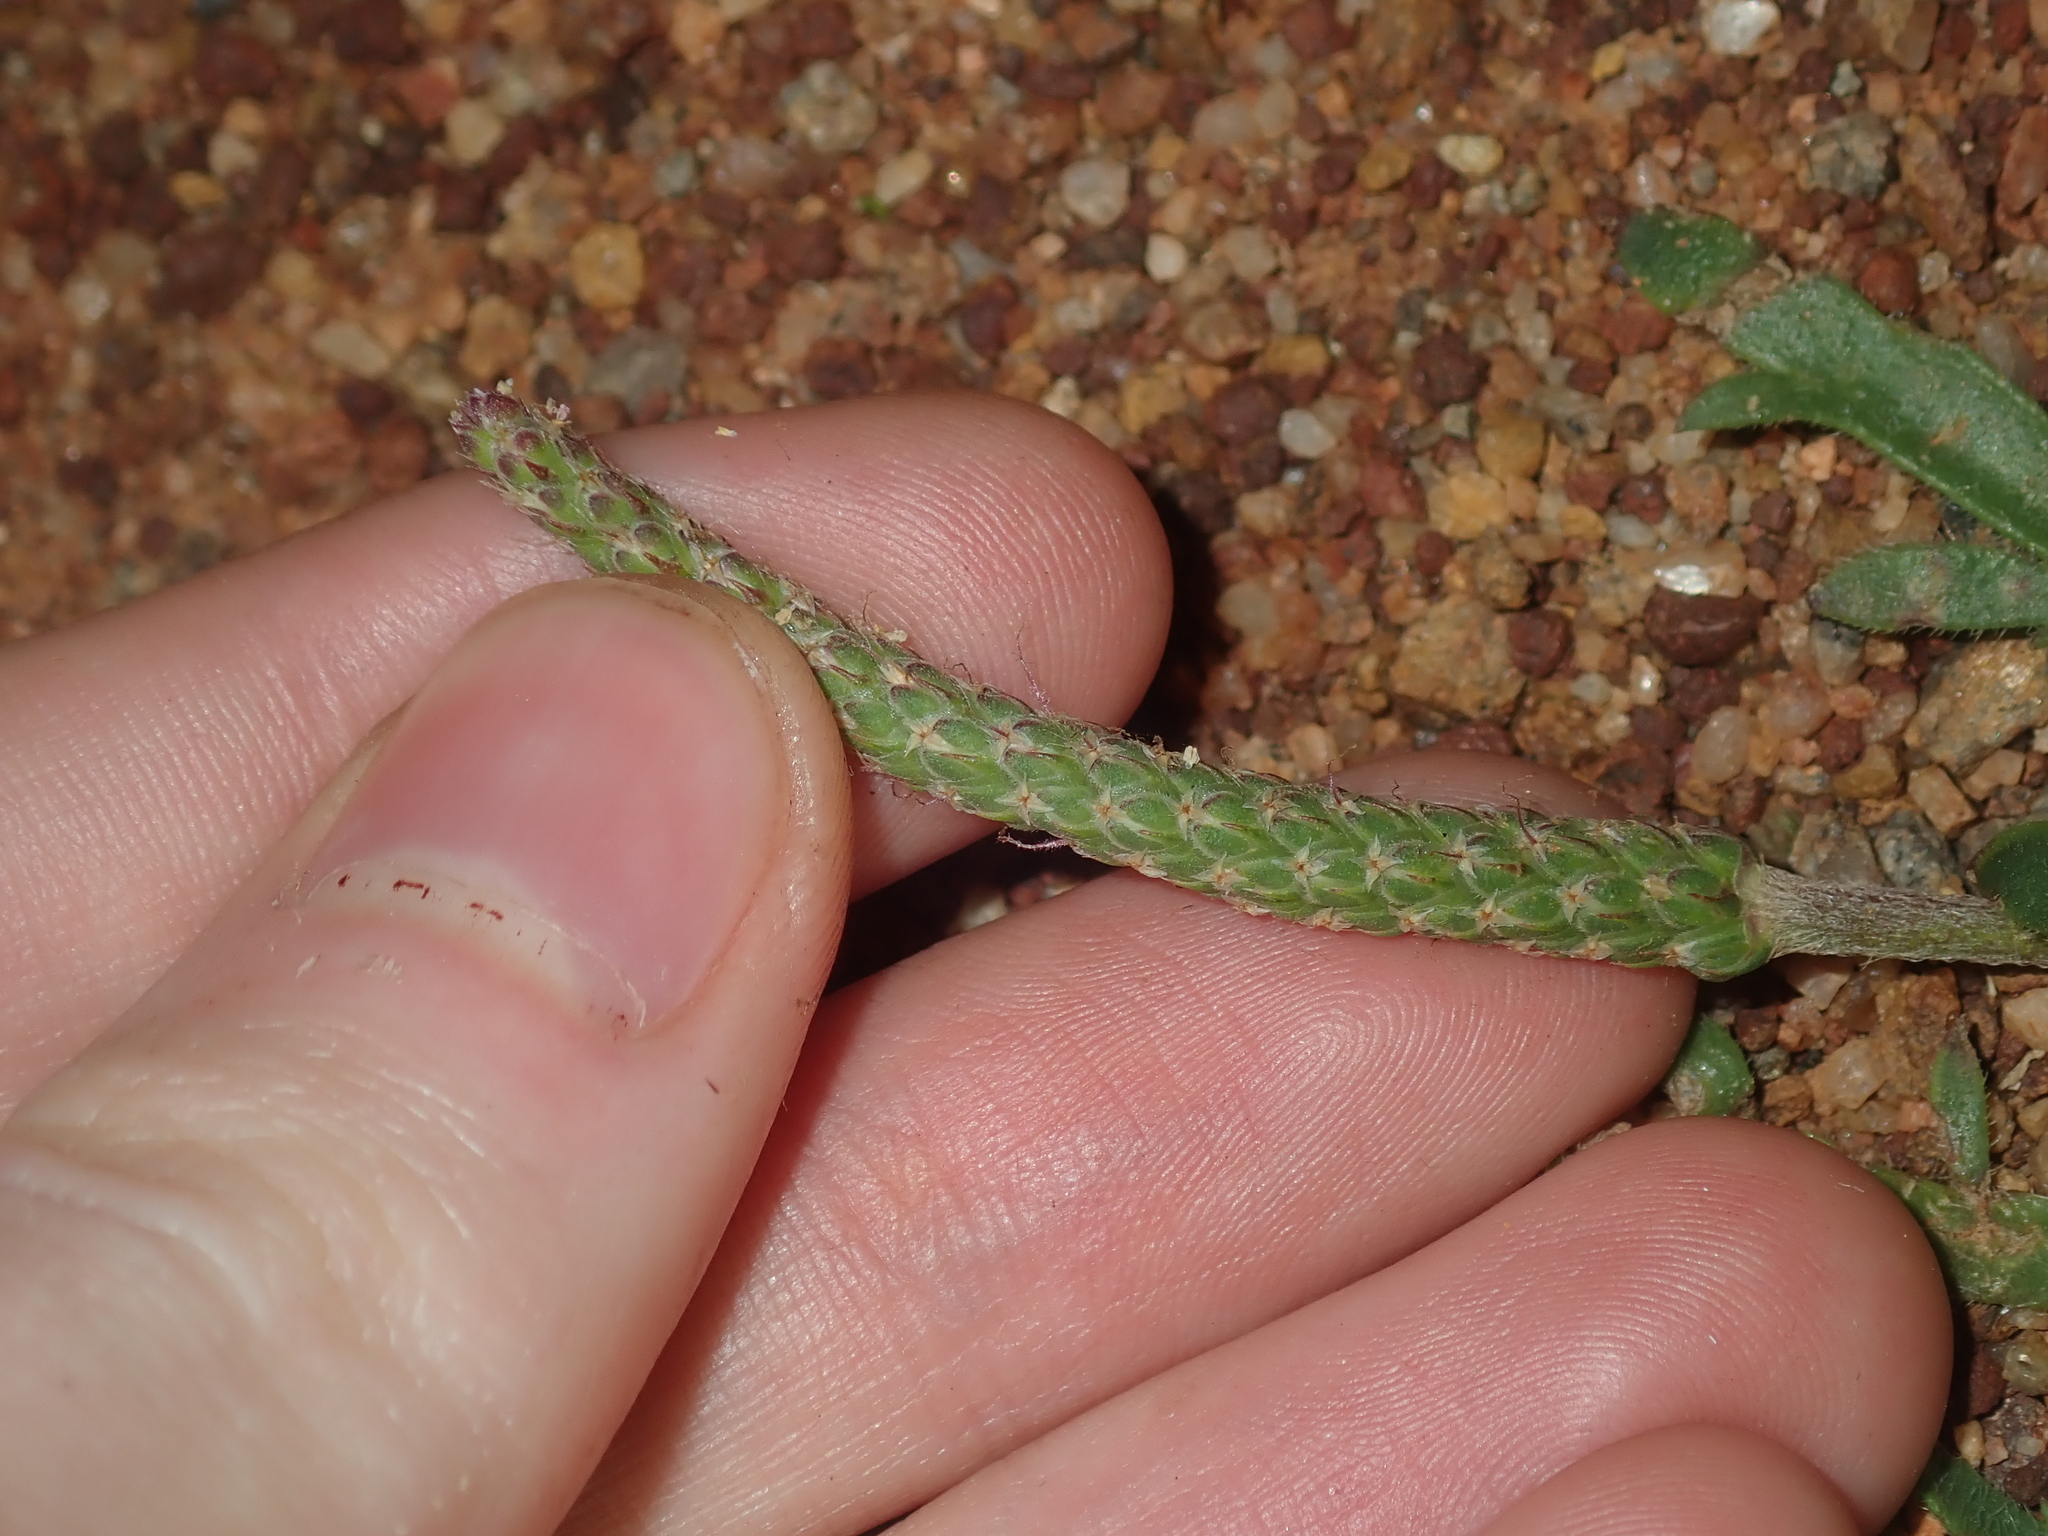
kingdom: Plantae
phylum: Tracheophyta
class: Magnoliopsida
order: Lamiales
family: Plantaginaceae
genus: Plantago
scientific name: Plantago coronopus
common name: Buck's-horn plantain
